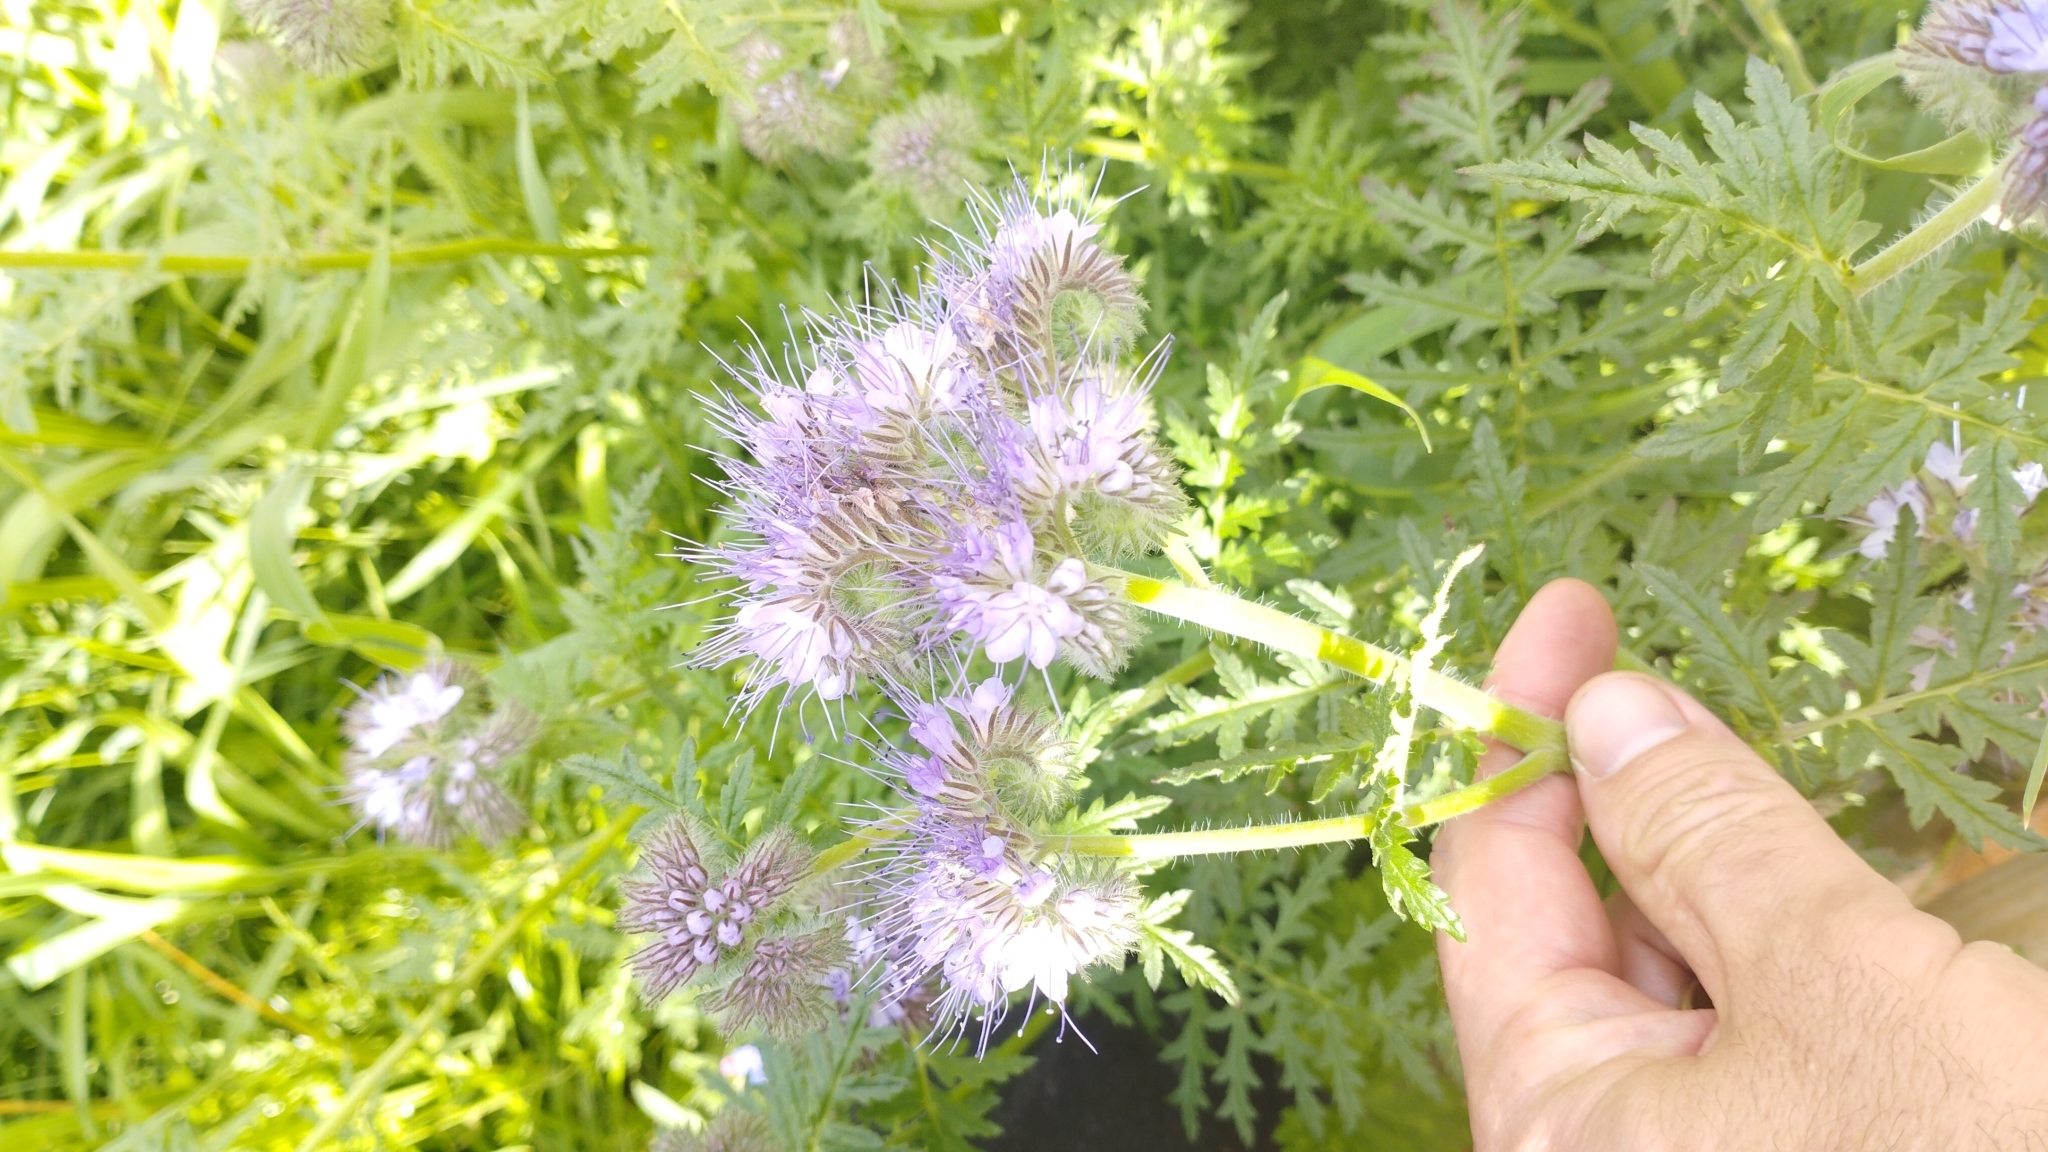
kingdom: Plantae
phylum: Tracheophyta
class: Magnoliopsida
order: Boraginales
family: Hydrophyllaceae
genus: Phacelia
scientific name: Phacelia tanacetifolia
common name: Phacelia
